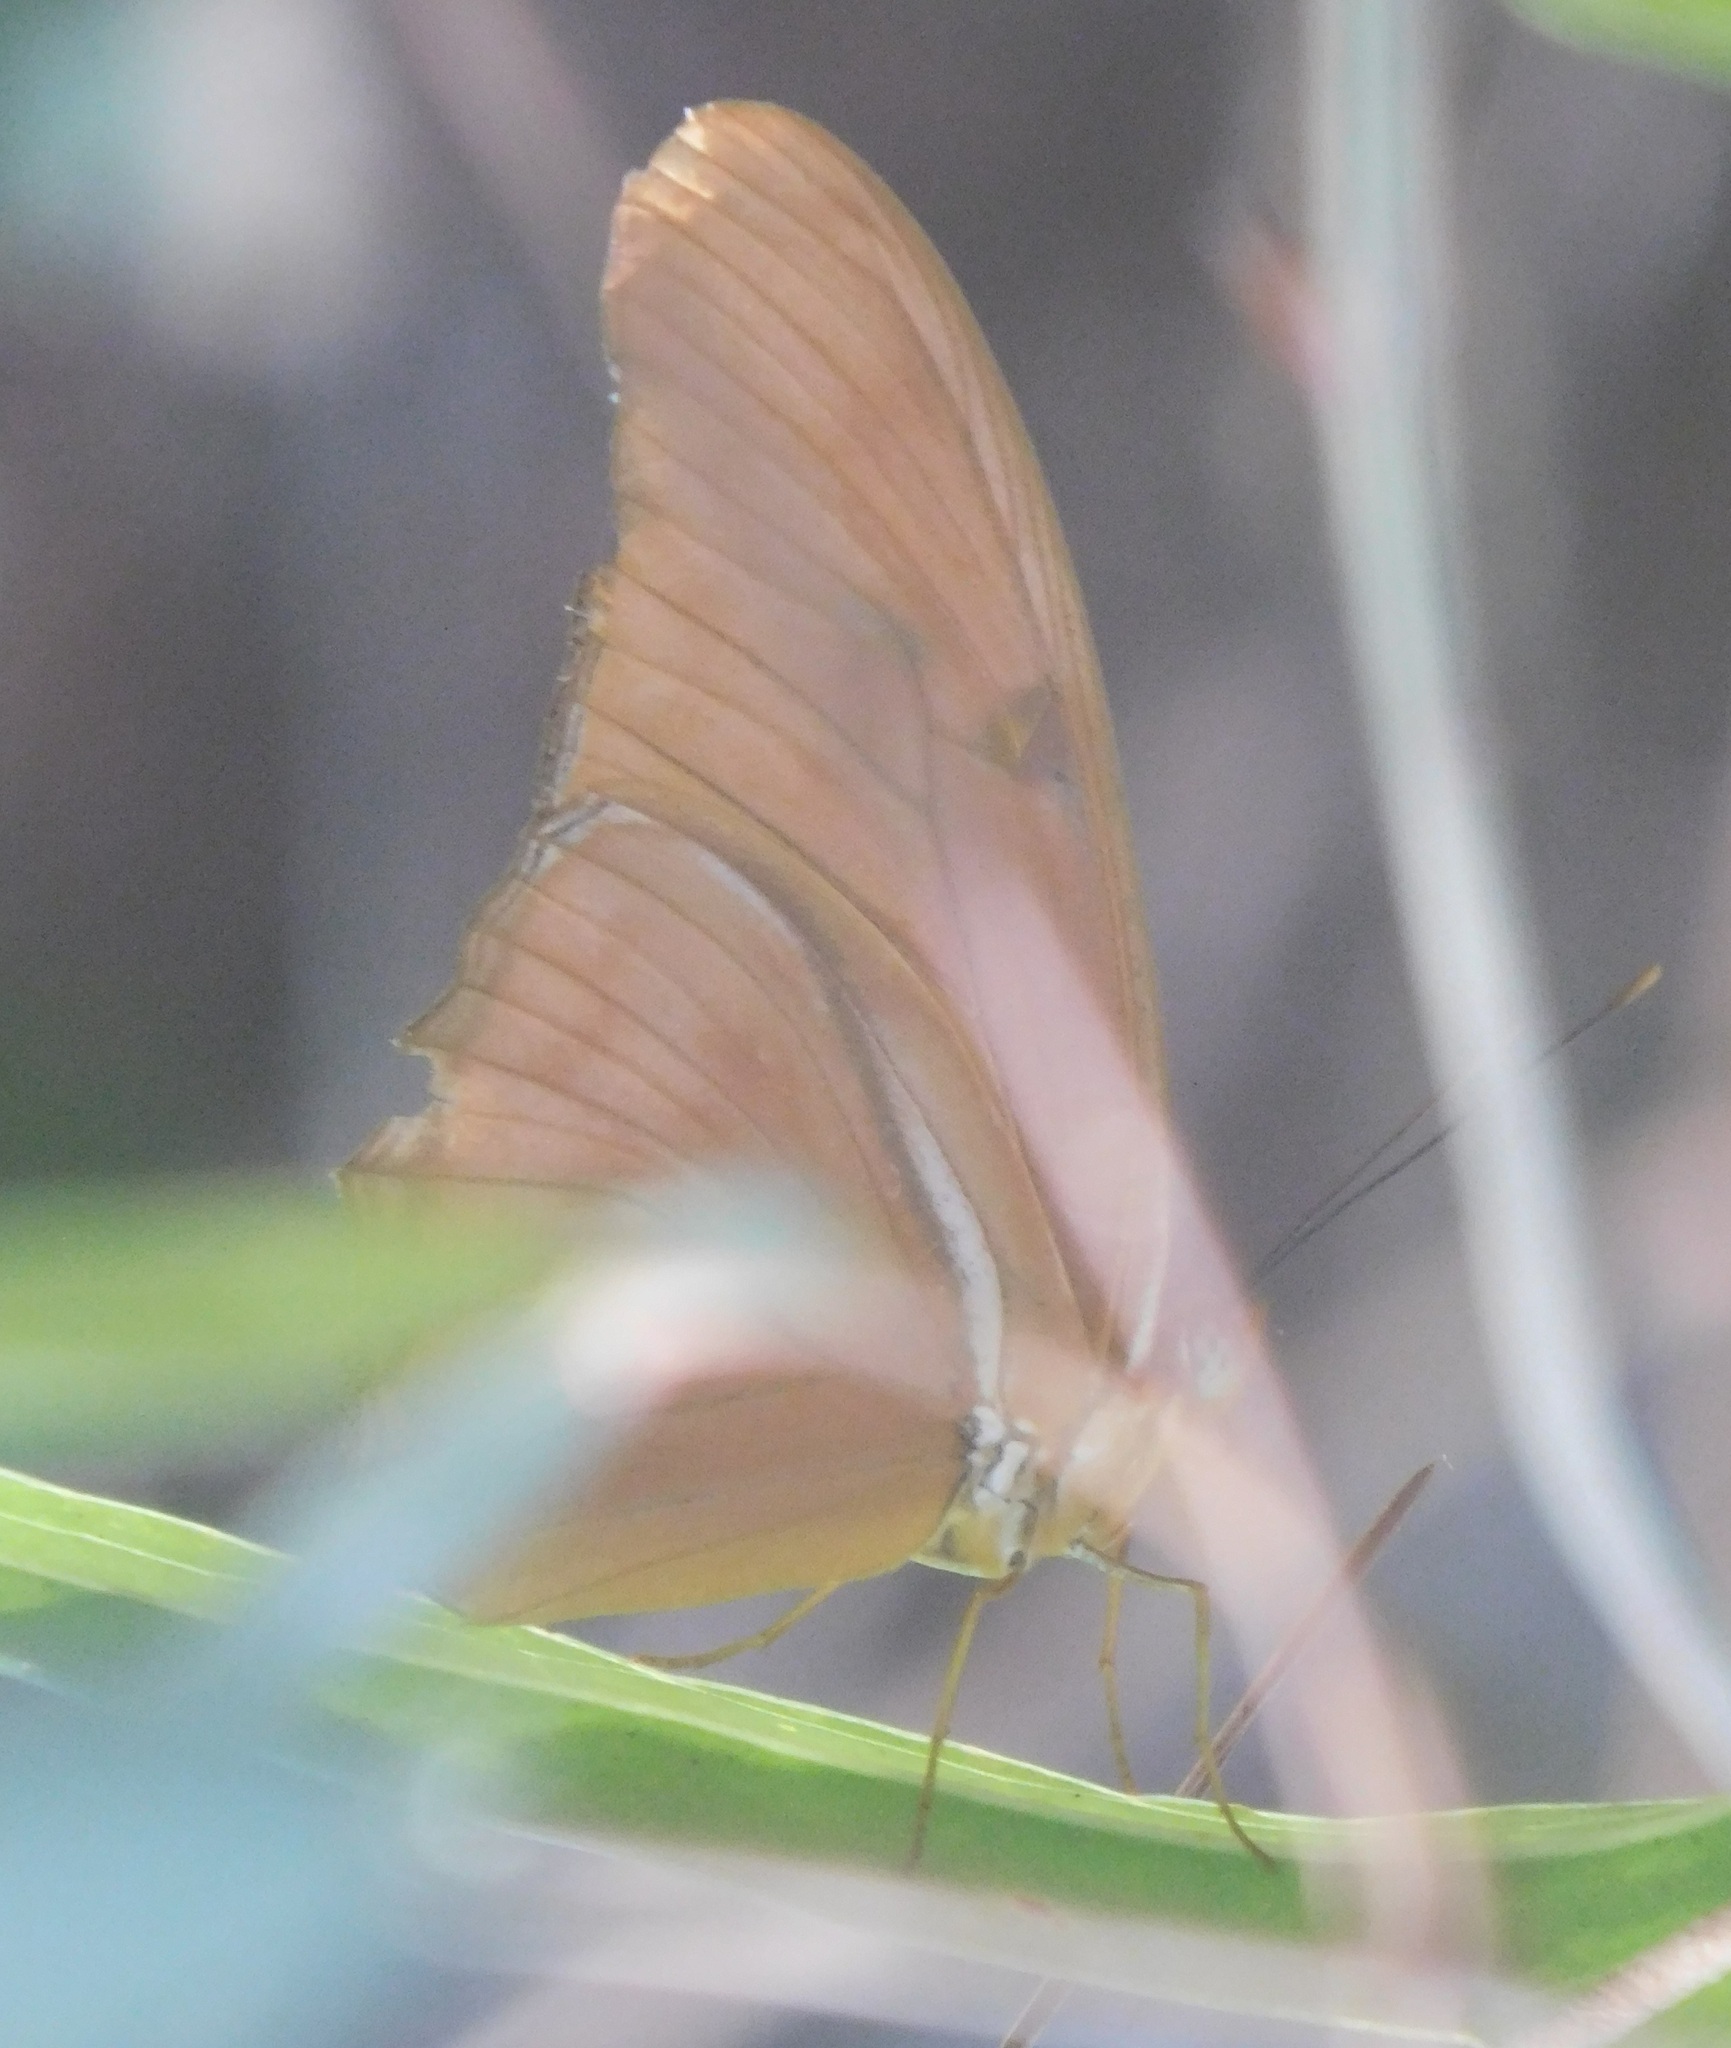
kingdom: Animalia
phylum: Arthropoda
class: Insecta
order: Lepidoptera
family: Nymphalidae
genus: Dryas
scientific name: Dryas iulia
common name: Flambeau
